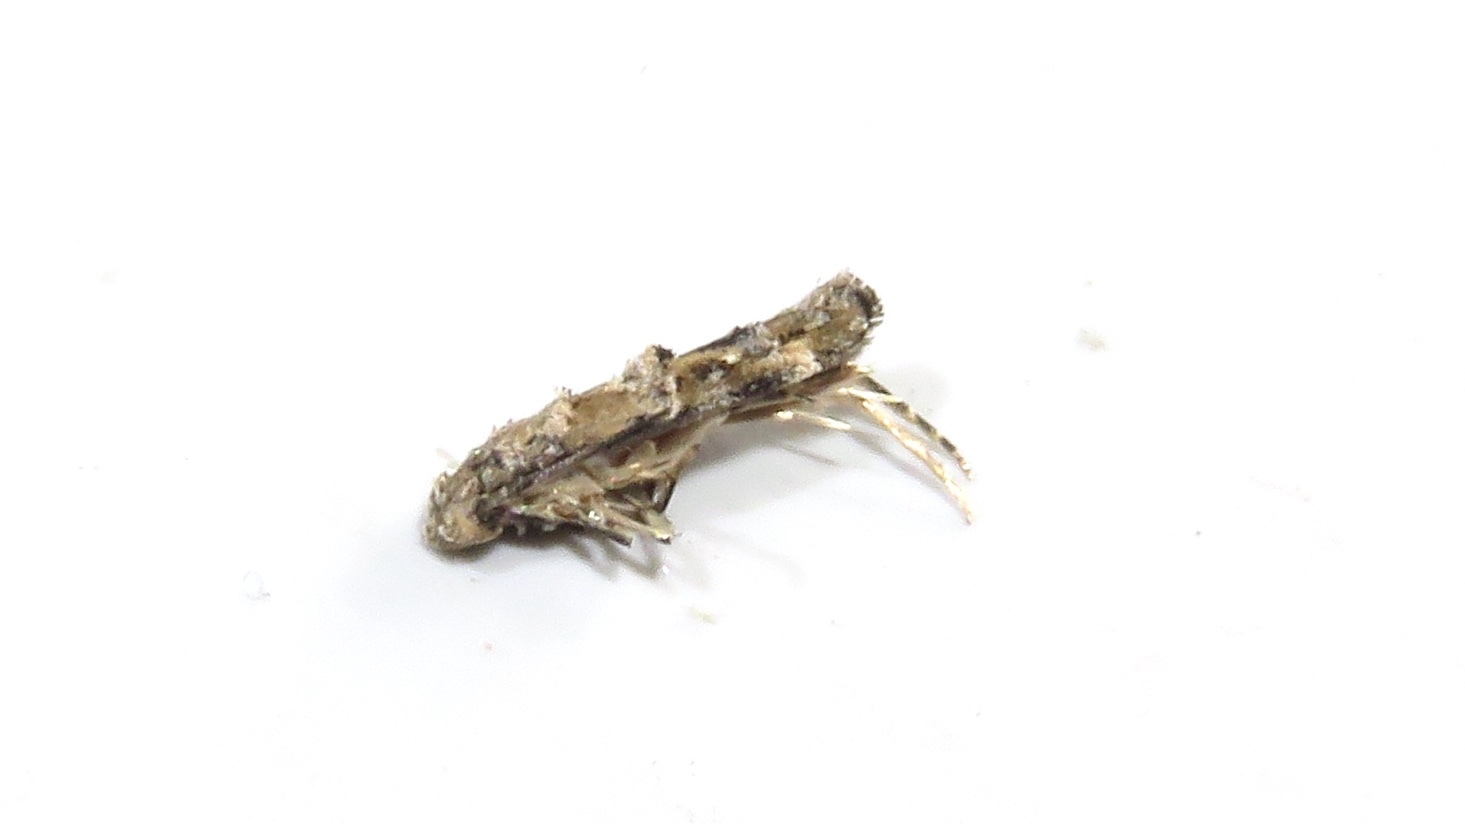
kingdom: Animalia
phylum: Arthropoda
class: Insecta
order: Lepidoptera
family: Momphidae
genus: Mompha
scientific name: Mompha stellella
